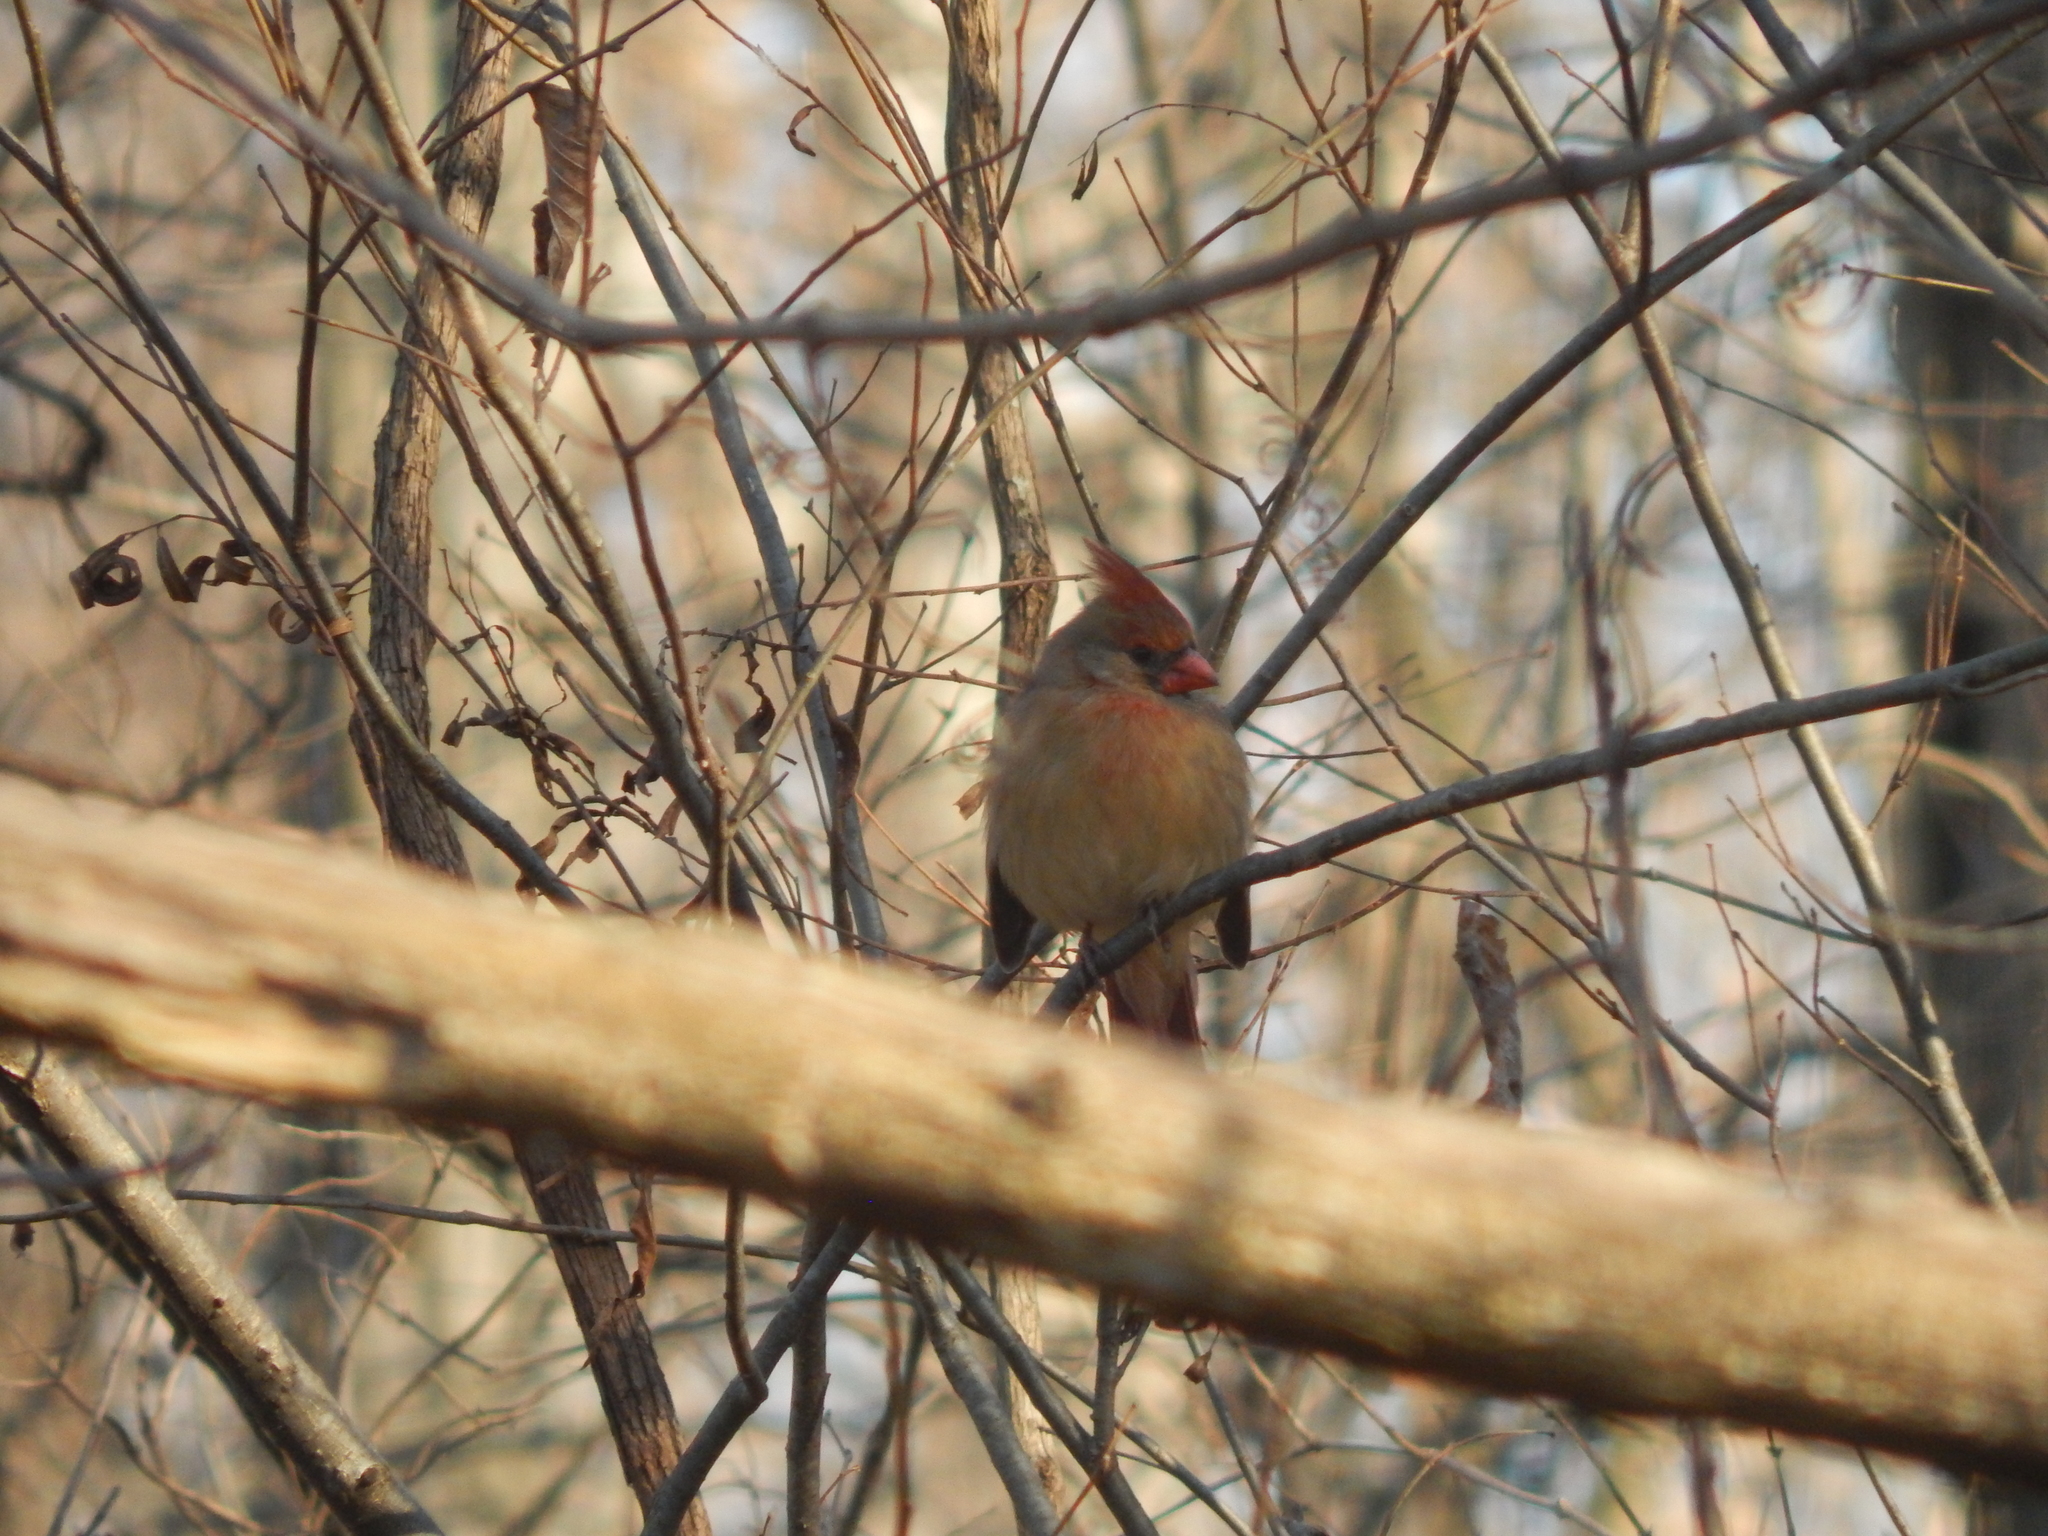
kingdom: Animalia
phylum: Chordata
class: Aves
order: Passeriformes
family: Cardinalidae
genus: Cardinalis
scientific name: Cardinalis cardinalis
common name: Northern cardinal
